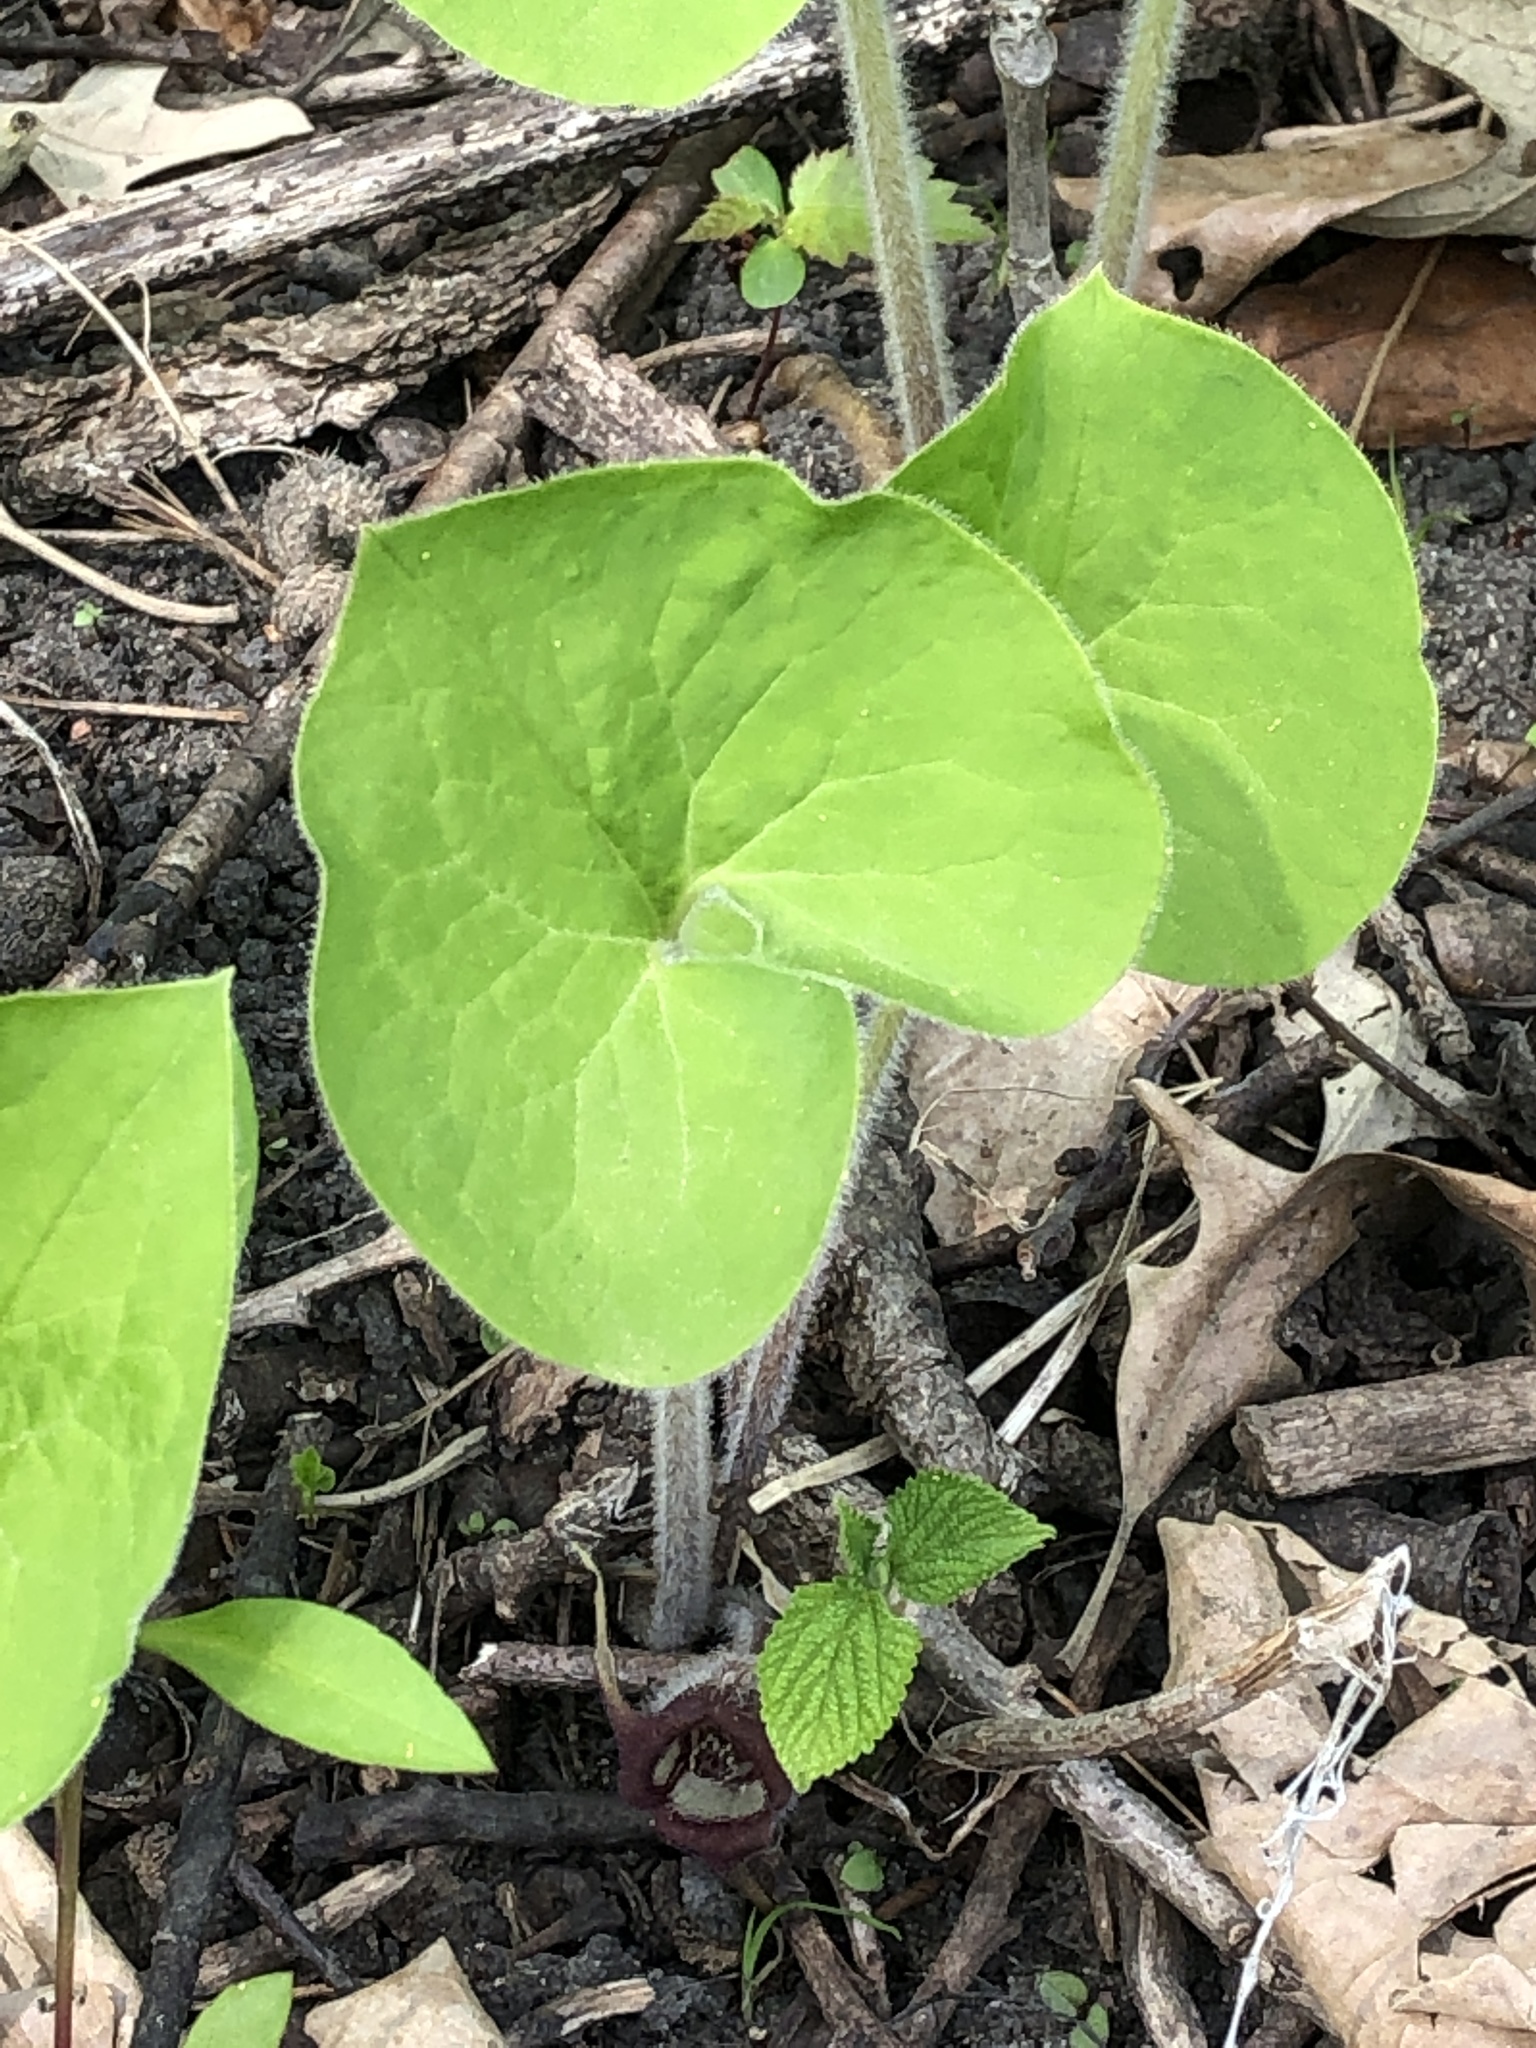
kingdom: Plantae
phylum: Tracheophyta
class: Magnoliopsida
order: Piperales
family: Aristolochiaceae
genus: Asarum
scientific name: Asarum canadense
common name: Wild ginger
